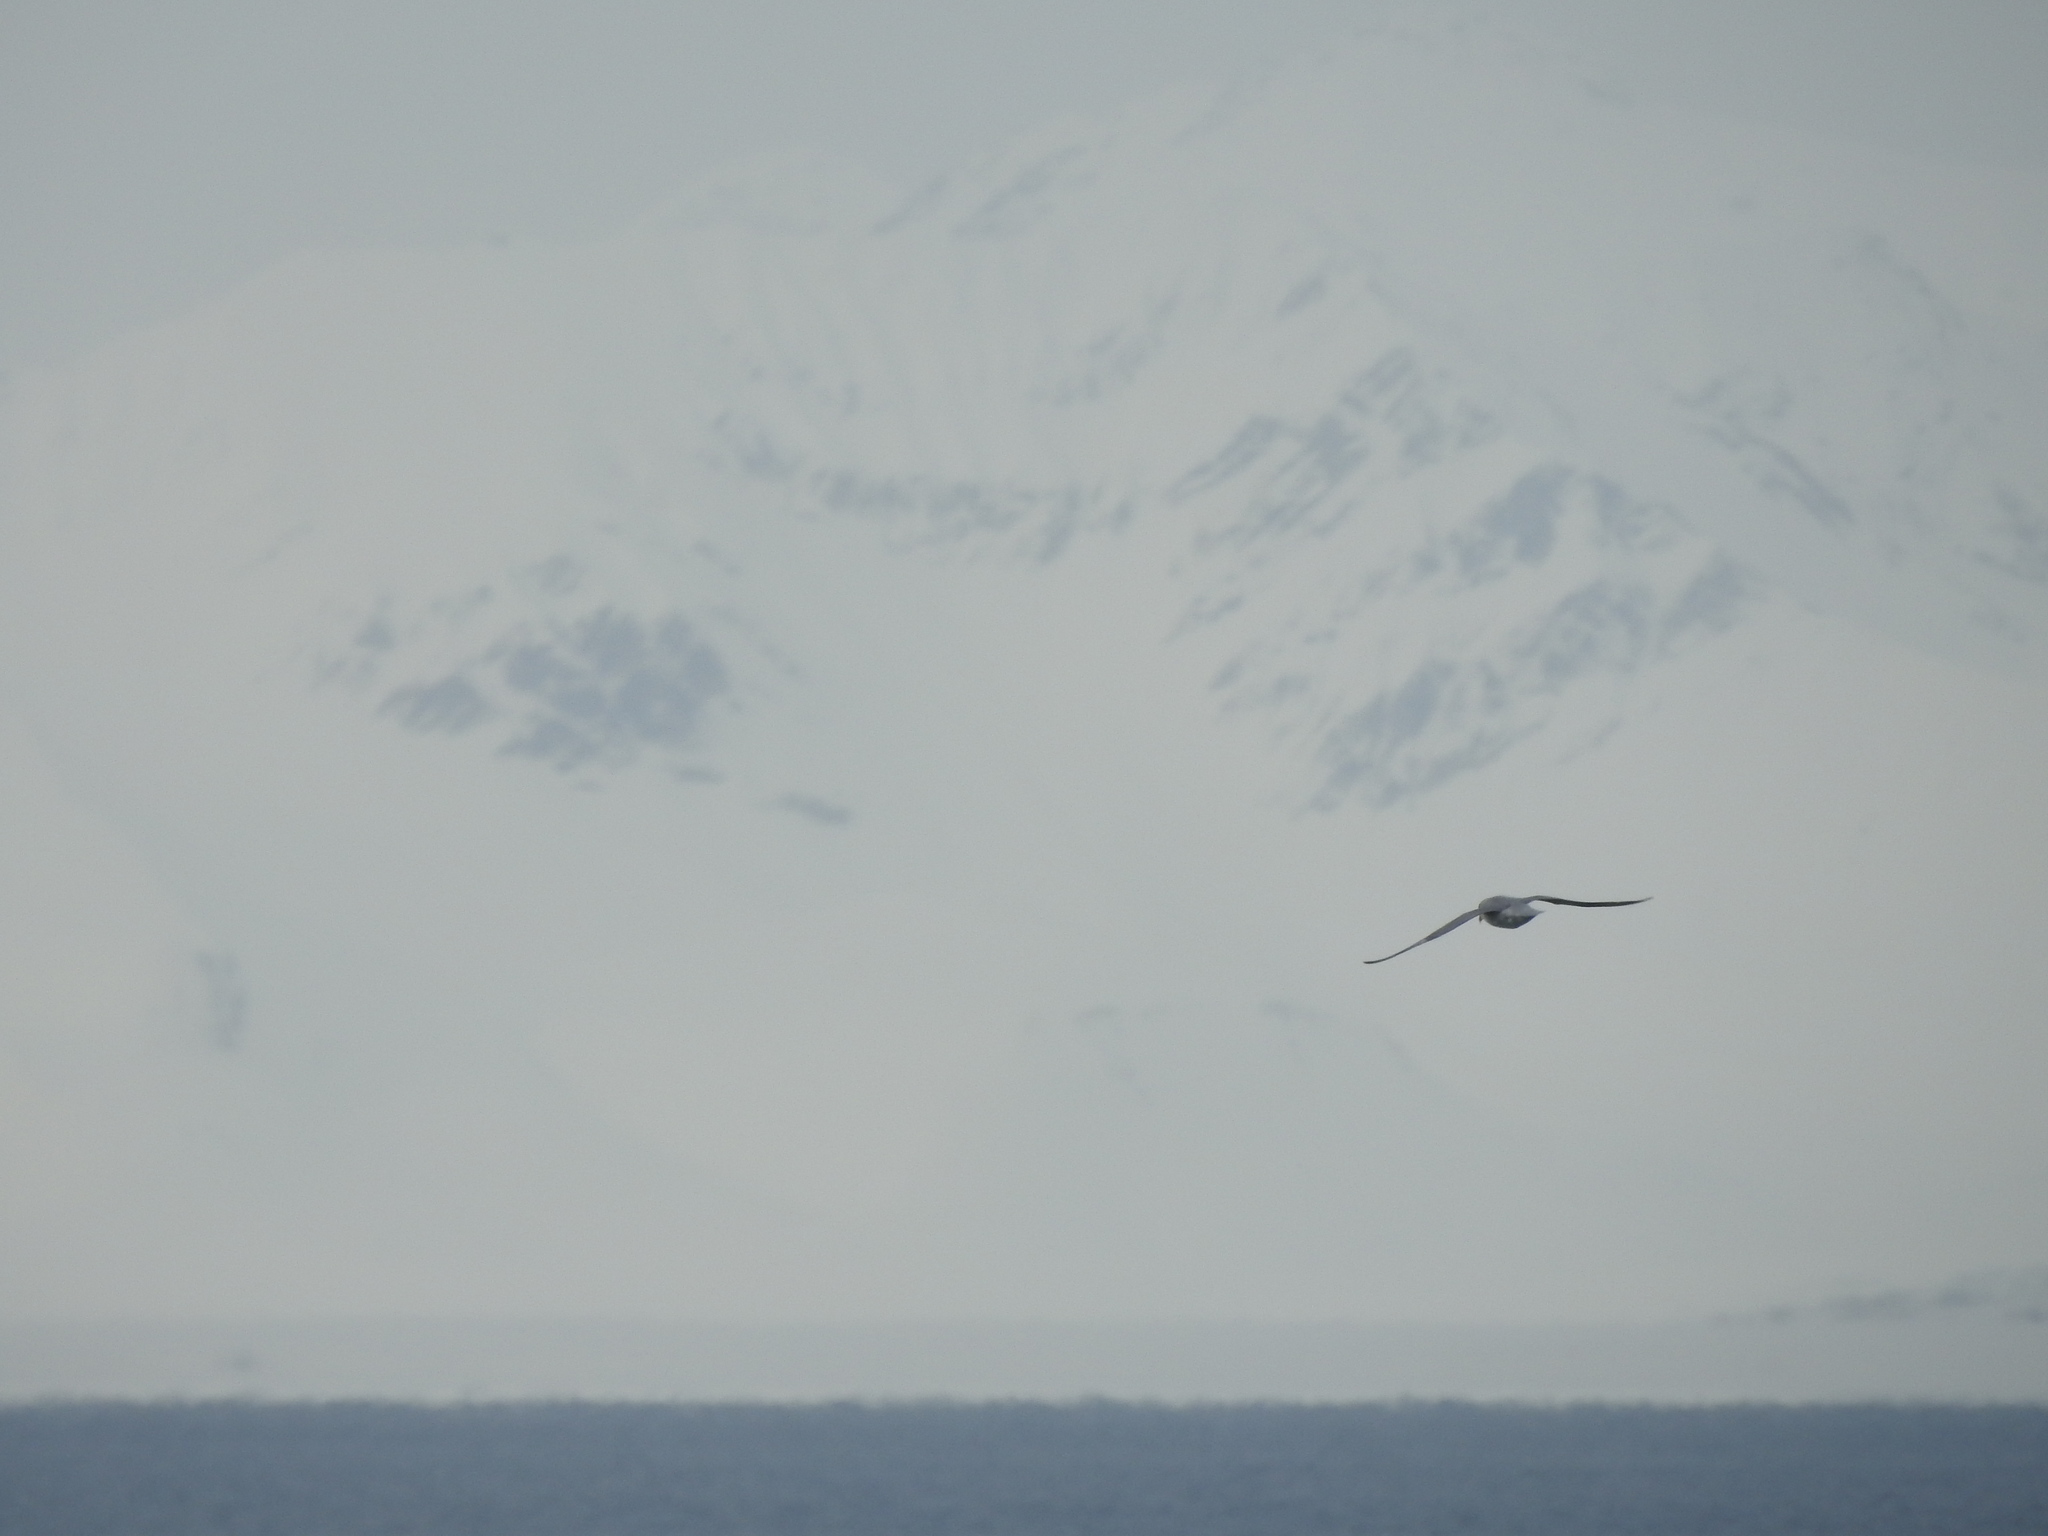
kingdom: Animalia
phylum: Chordata
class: Aves
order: Procellariiformes
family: Procellariidae
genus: Fulmarus
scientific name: Fulmarus glacialis
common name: Northern fulmar
